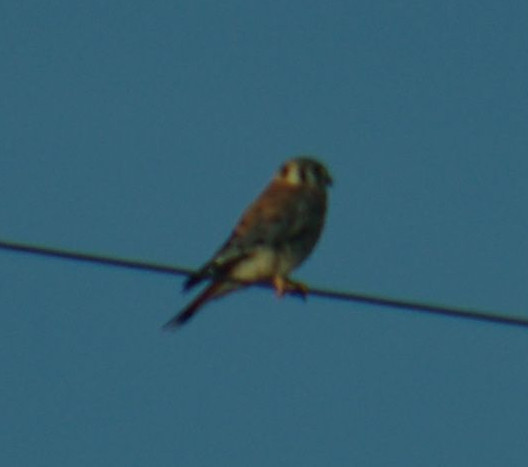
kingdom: Animalia
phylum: Chordata
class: Aves
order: Falconiformes
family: Falconidae
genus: Falco
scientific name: Falco sparverius
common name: American kestrel
